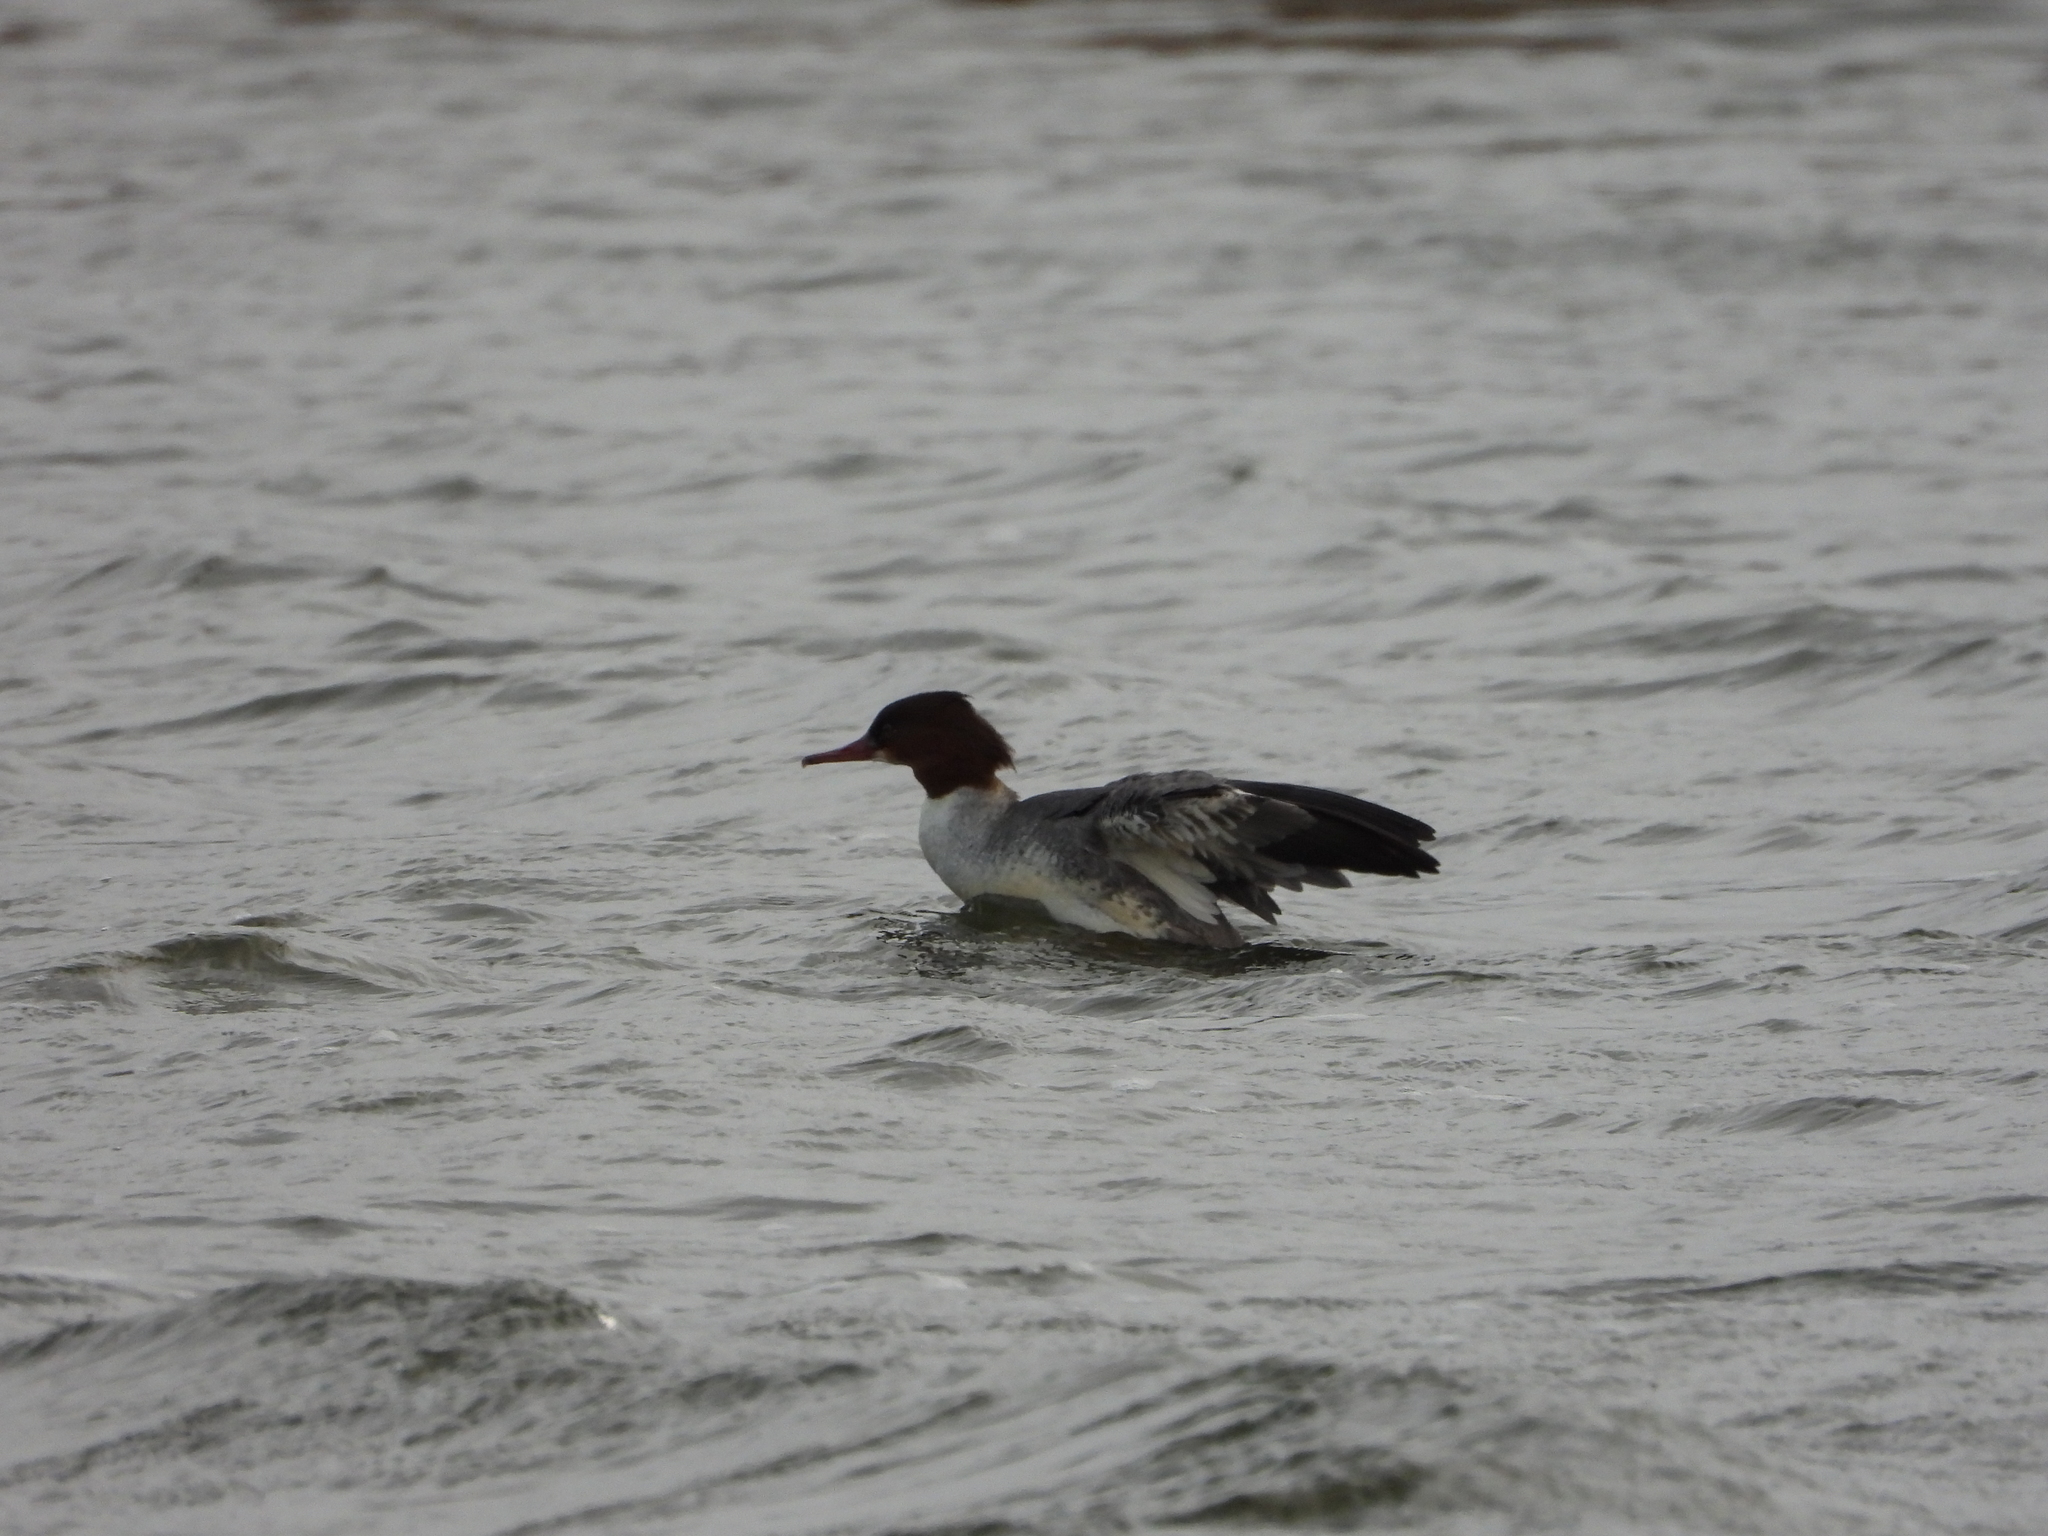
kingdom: Animalia
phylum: Chordata
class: Aves
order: Anseriformes
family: Anatidae
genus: Mergus
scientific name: Mergus merganser
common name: Common merganser
